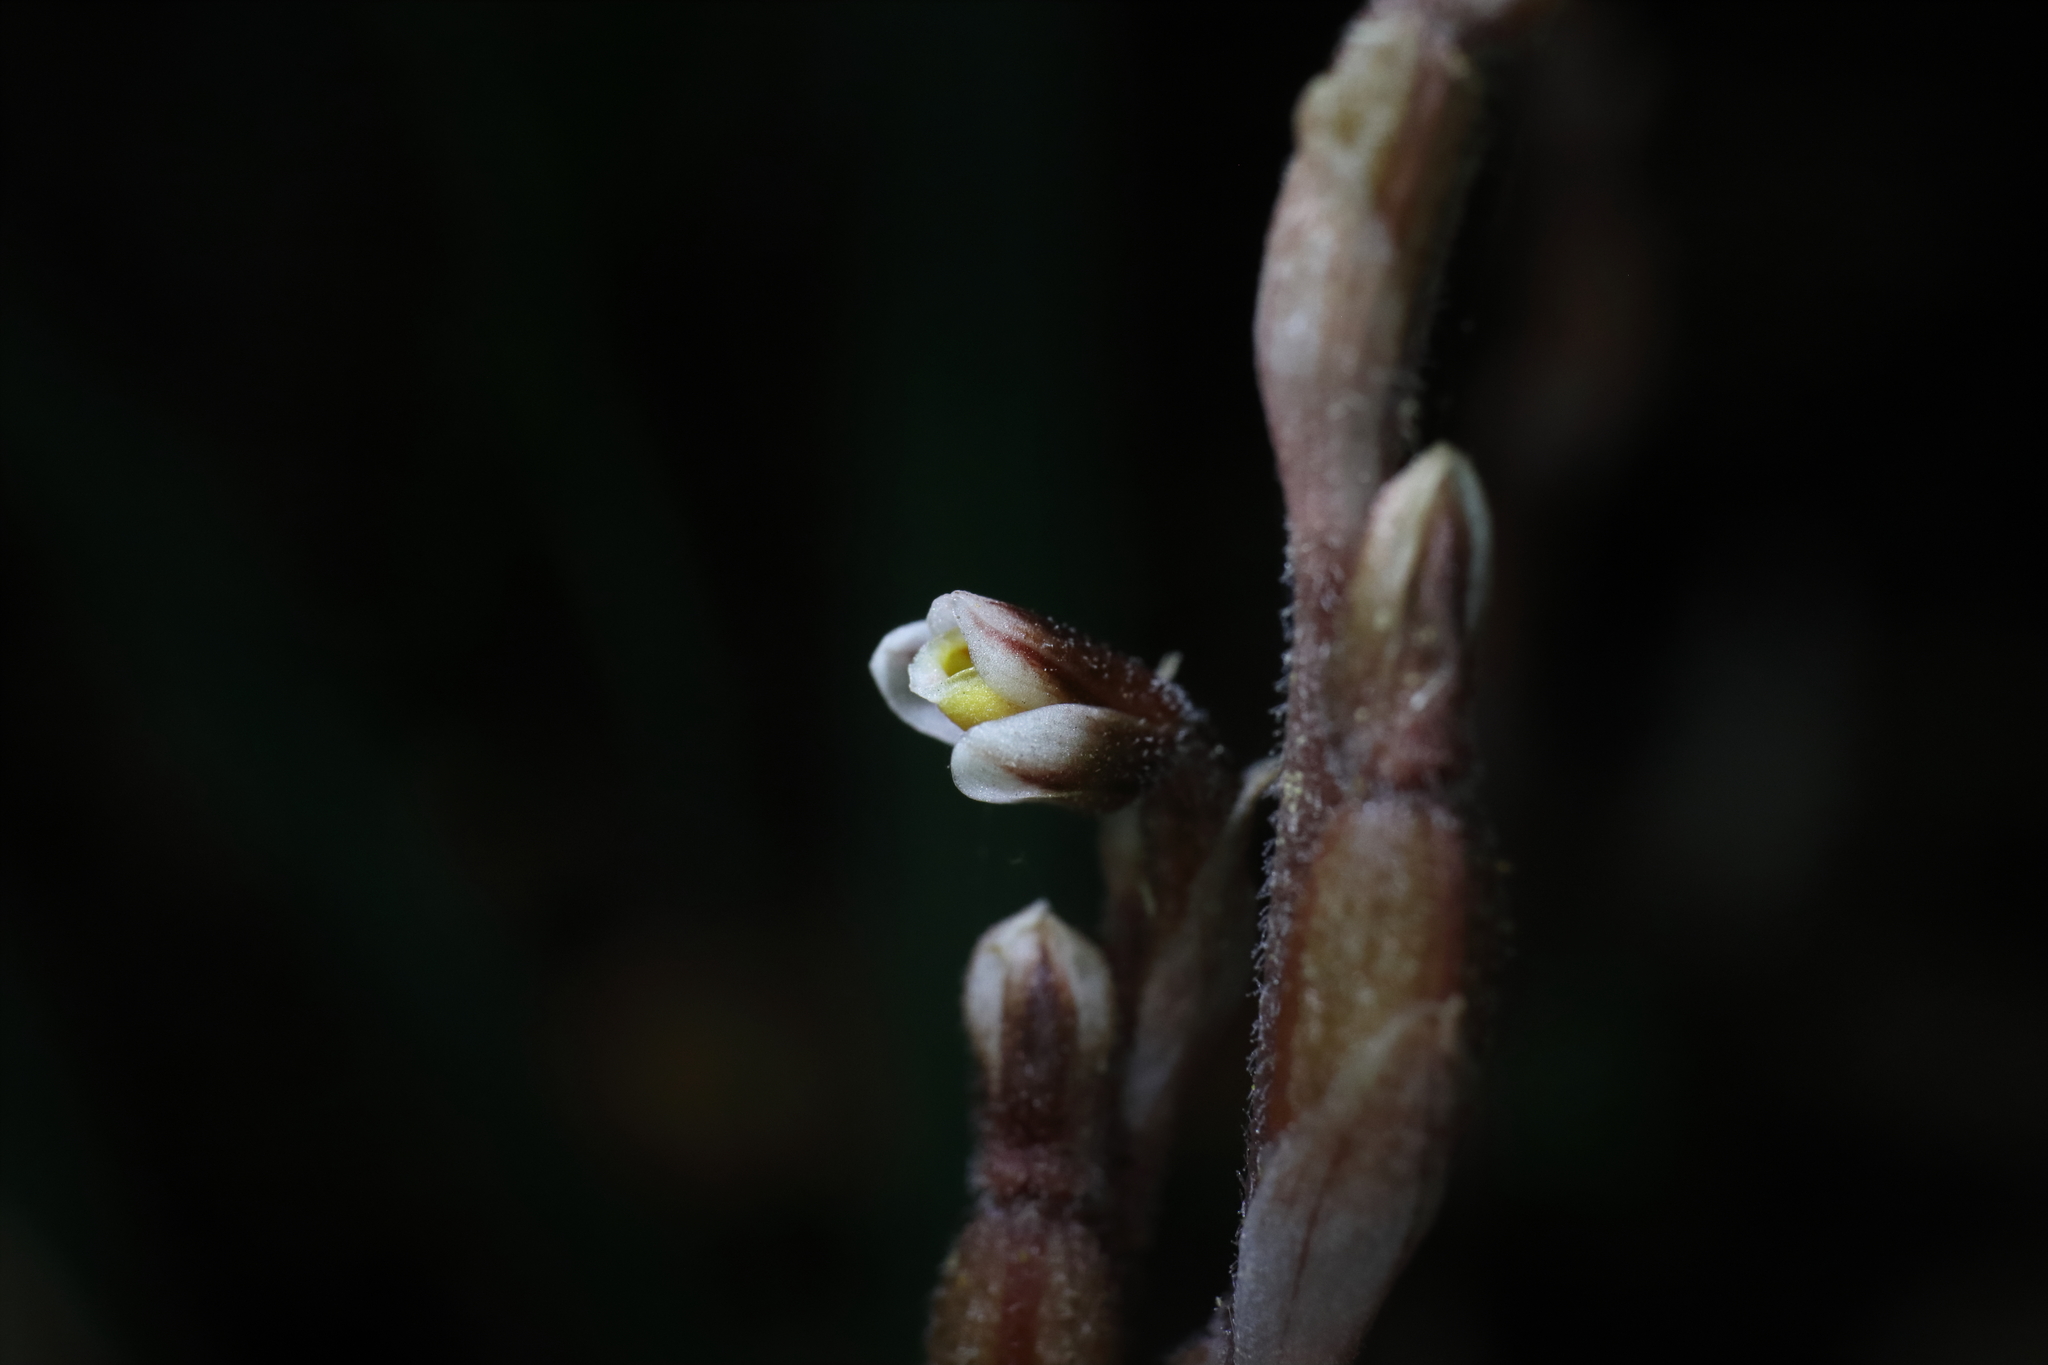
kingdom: Plantae
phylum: Tracheophyta
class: Liliopsida
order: Asparagales
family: Orchidaceae
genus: Danhatchia
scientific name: Danhatchia australis
